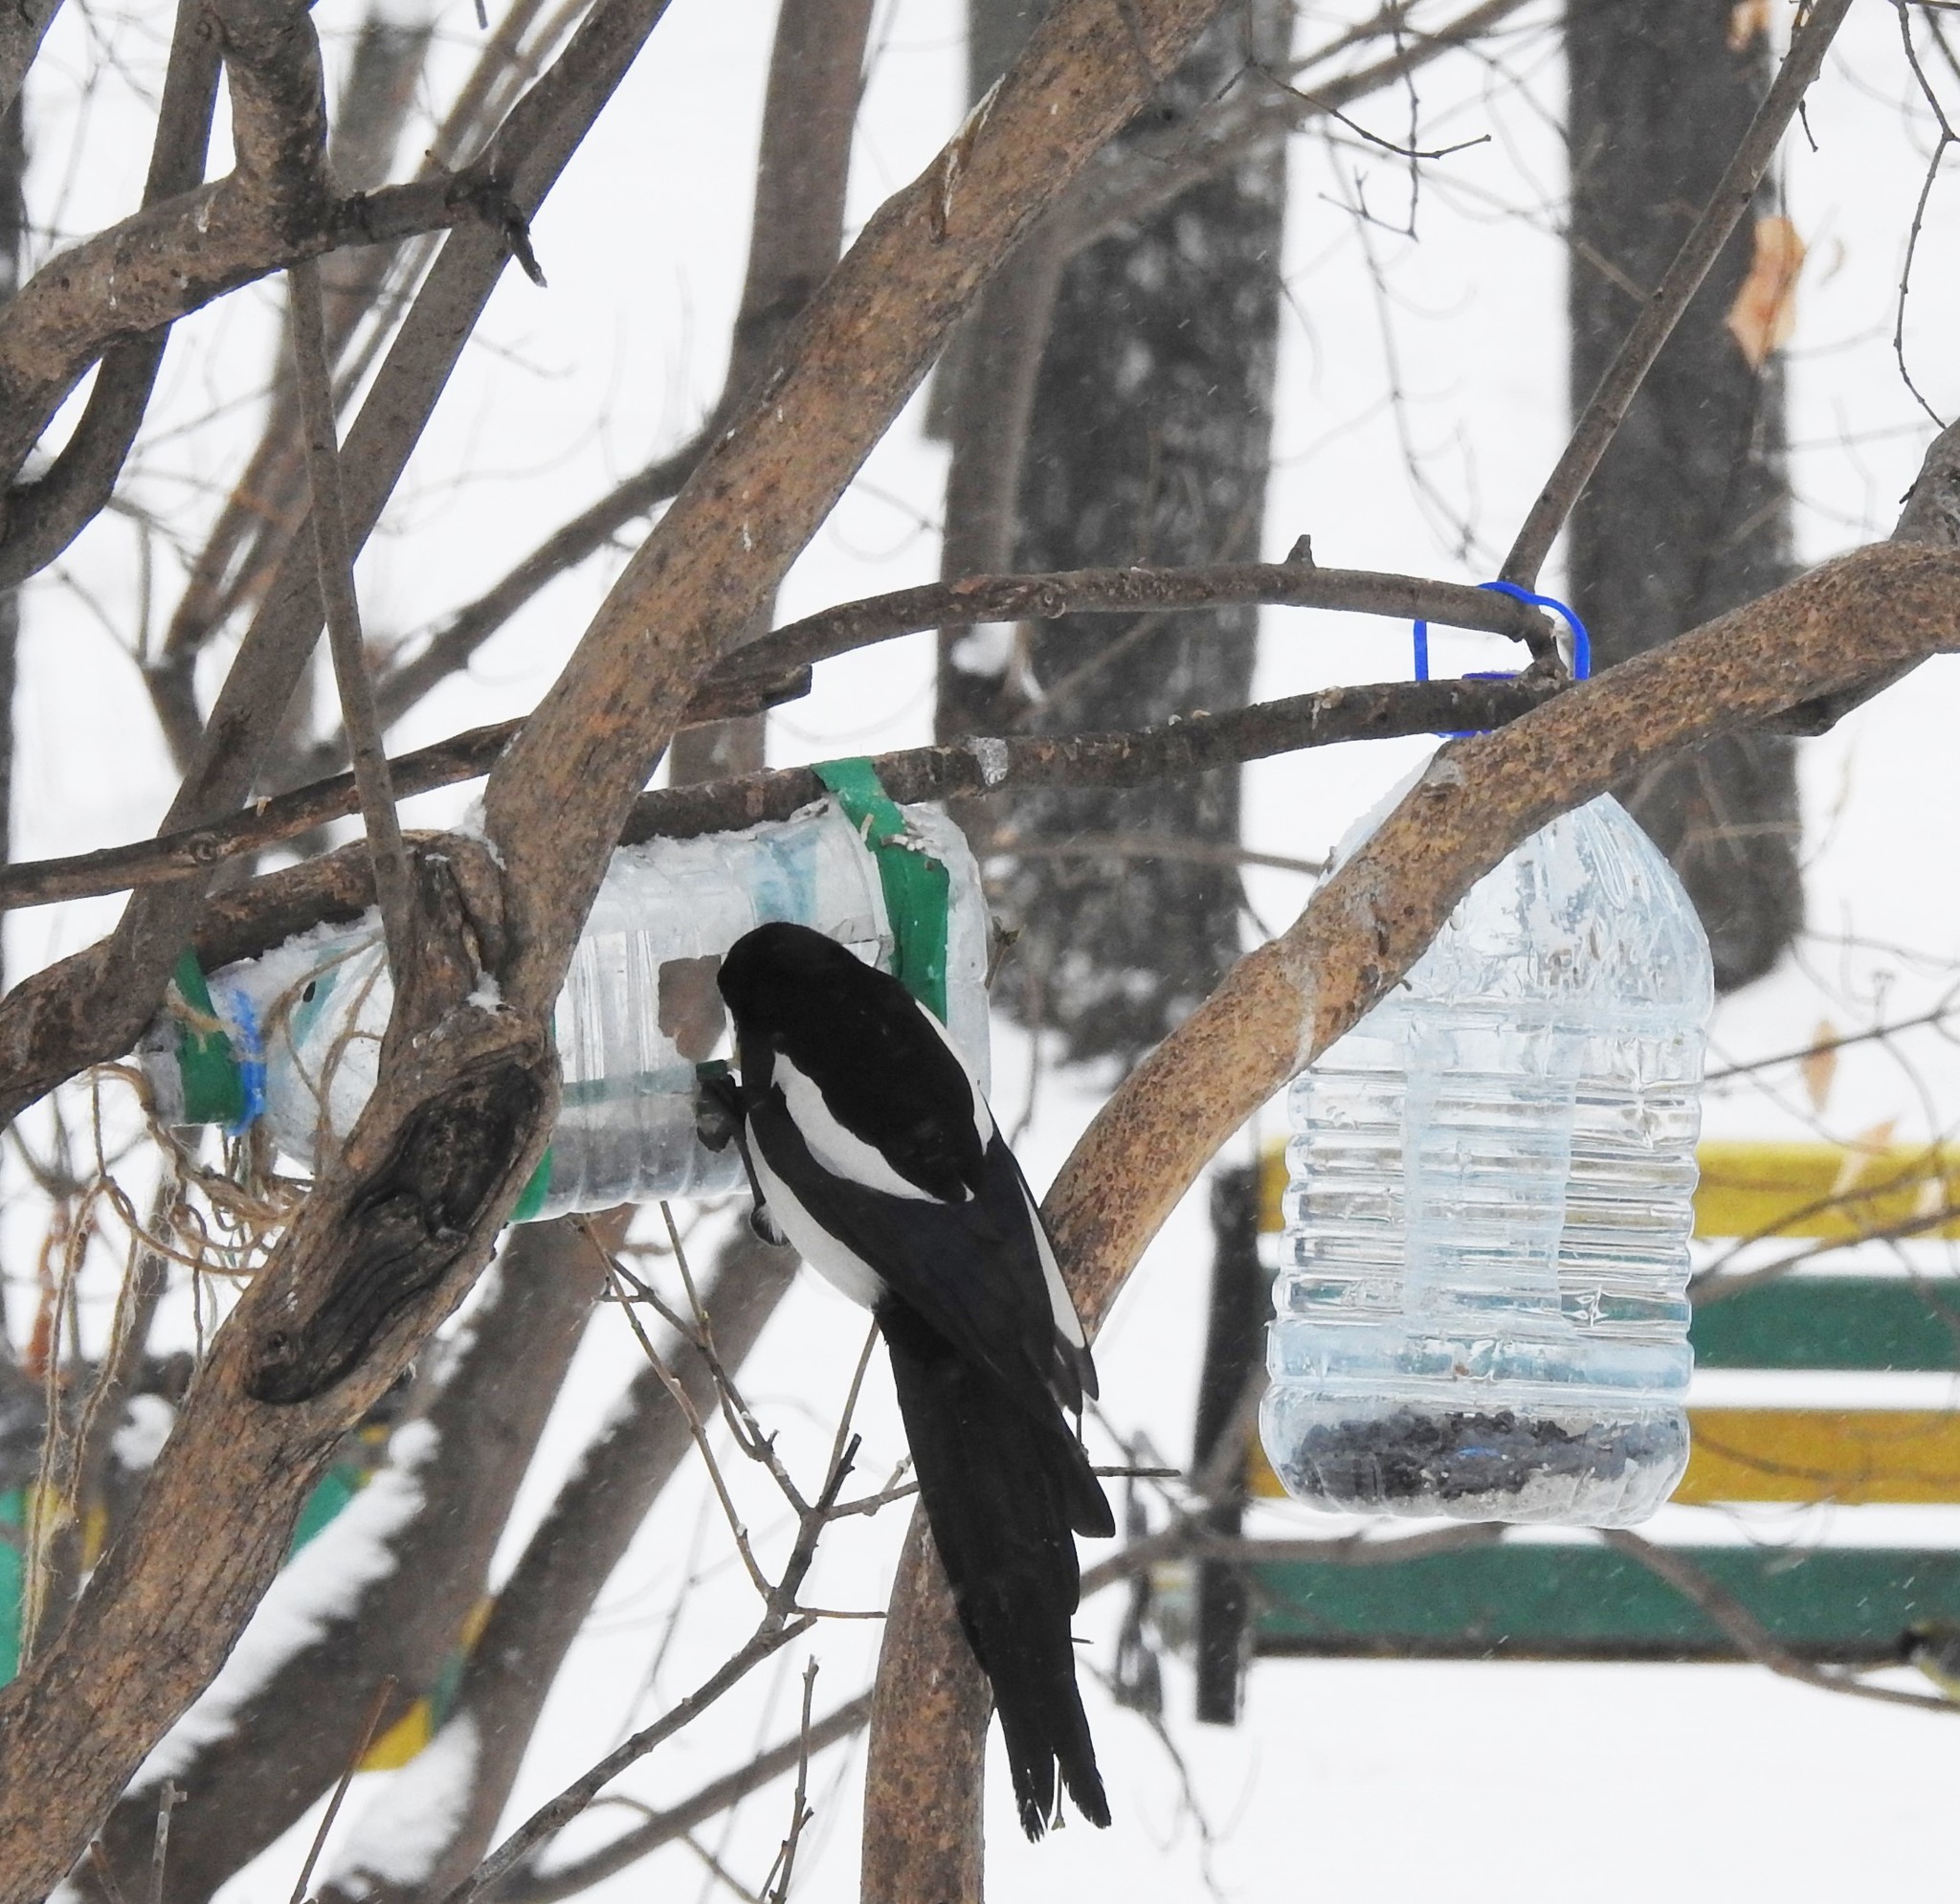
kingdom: Animalia
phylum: Chordata
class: Aves
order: Passeriformes
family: Corvidae
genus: Pica
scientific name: Pica pica
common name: Eurasian magpie
